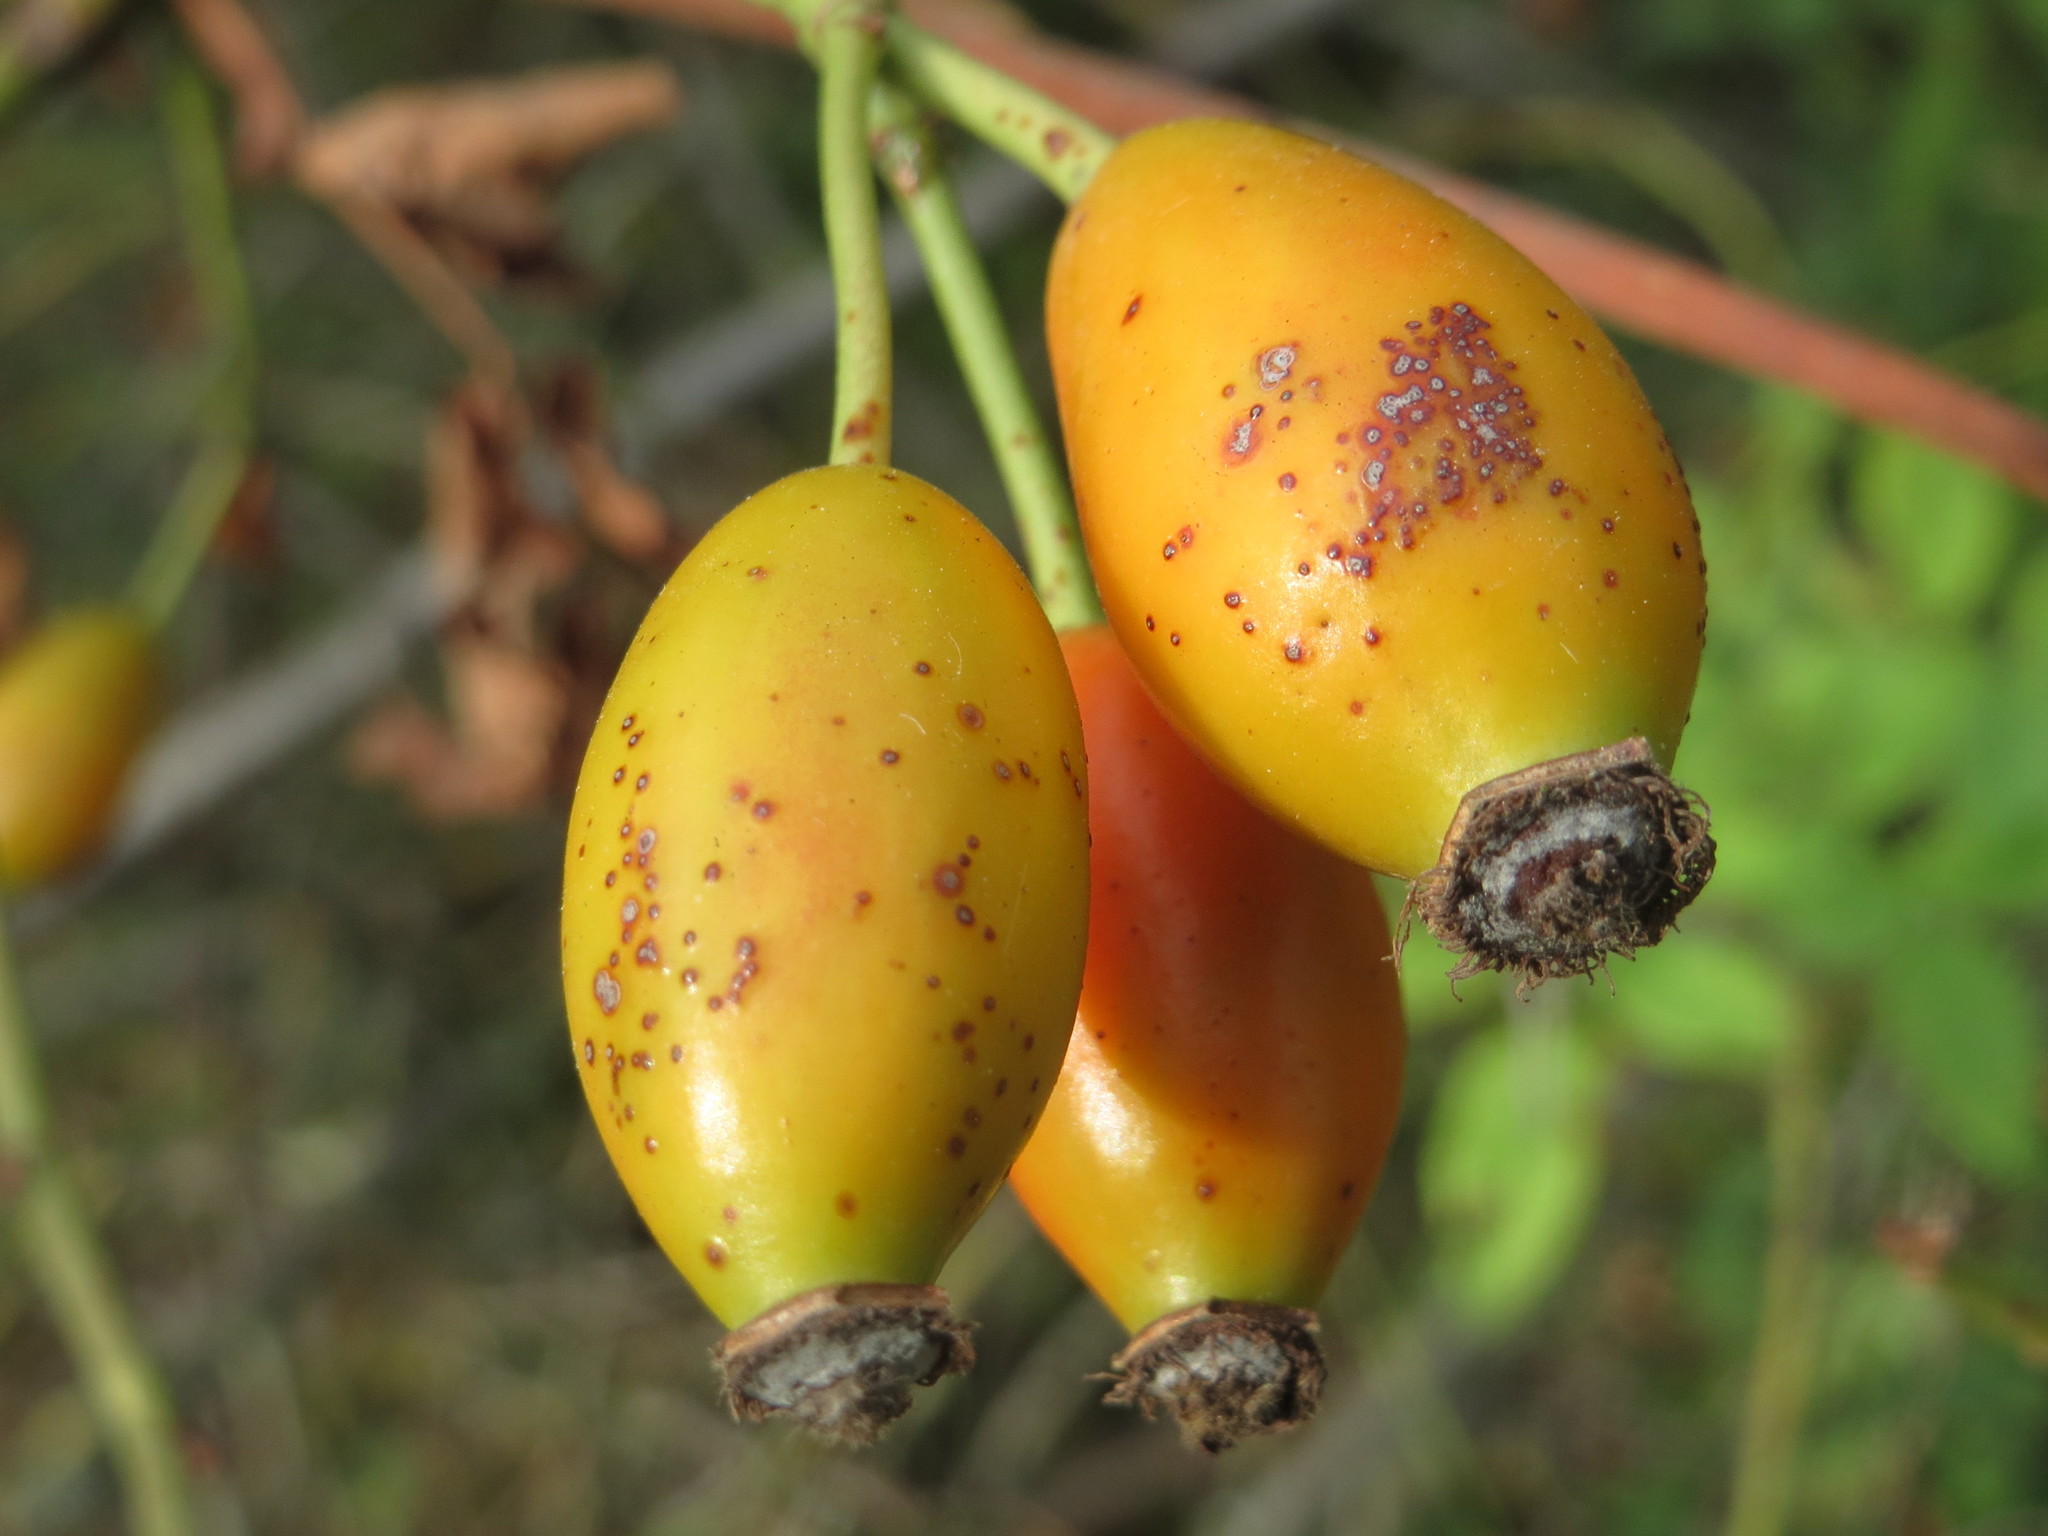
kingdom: Plantae
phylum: Tracheophyta
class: Magnoliopsida
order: Rosales
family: Rosaceae
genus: Rosa
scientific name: Rosa canina
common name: Dog rose
